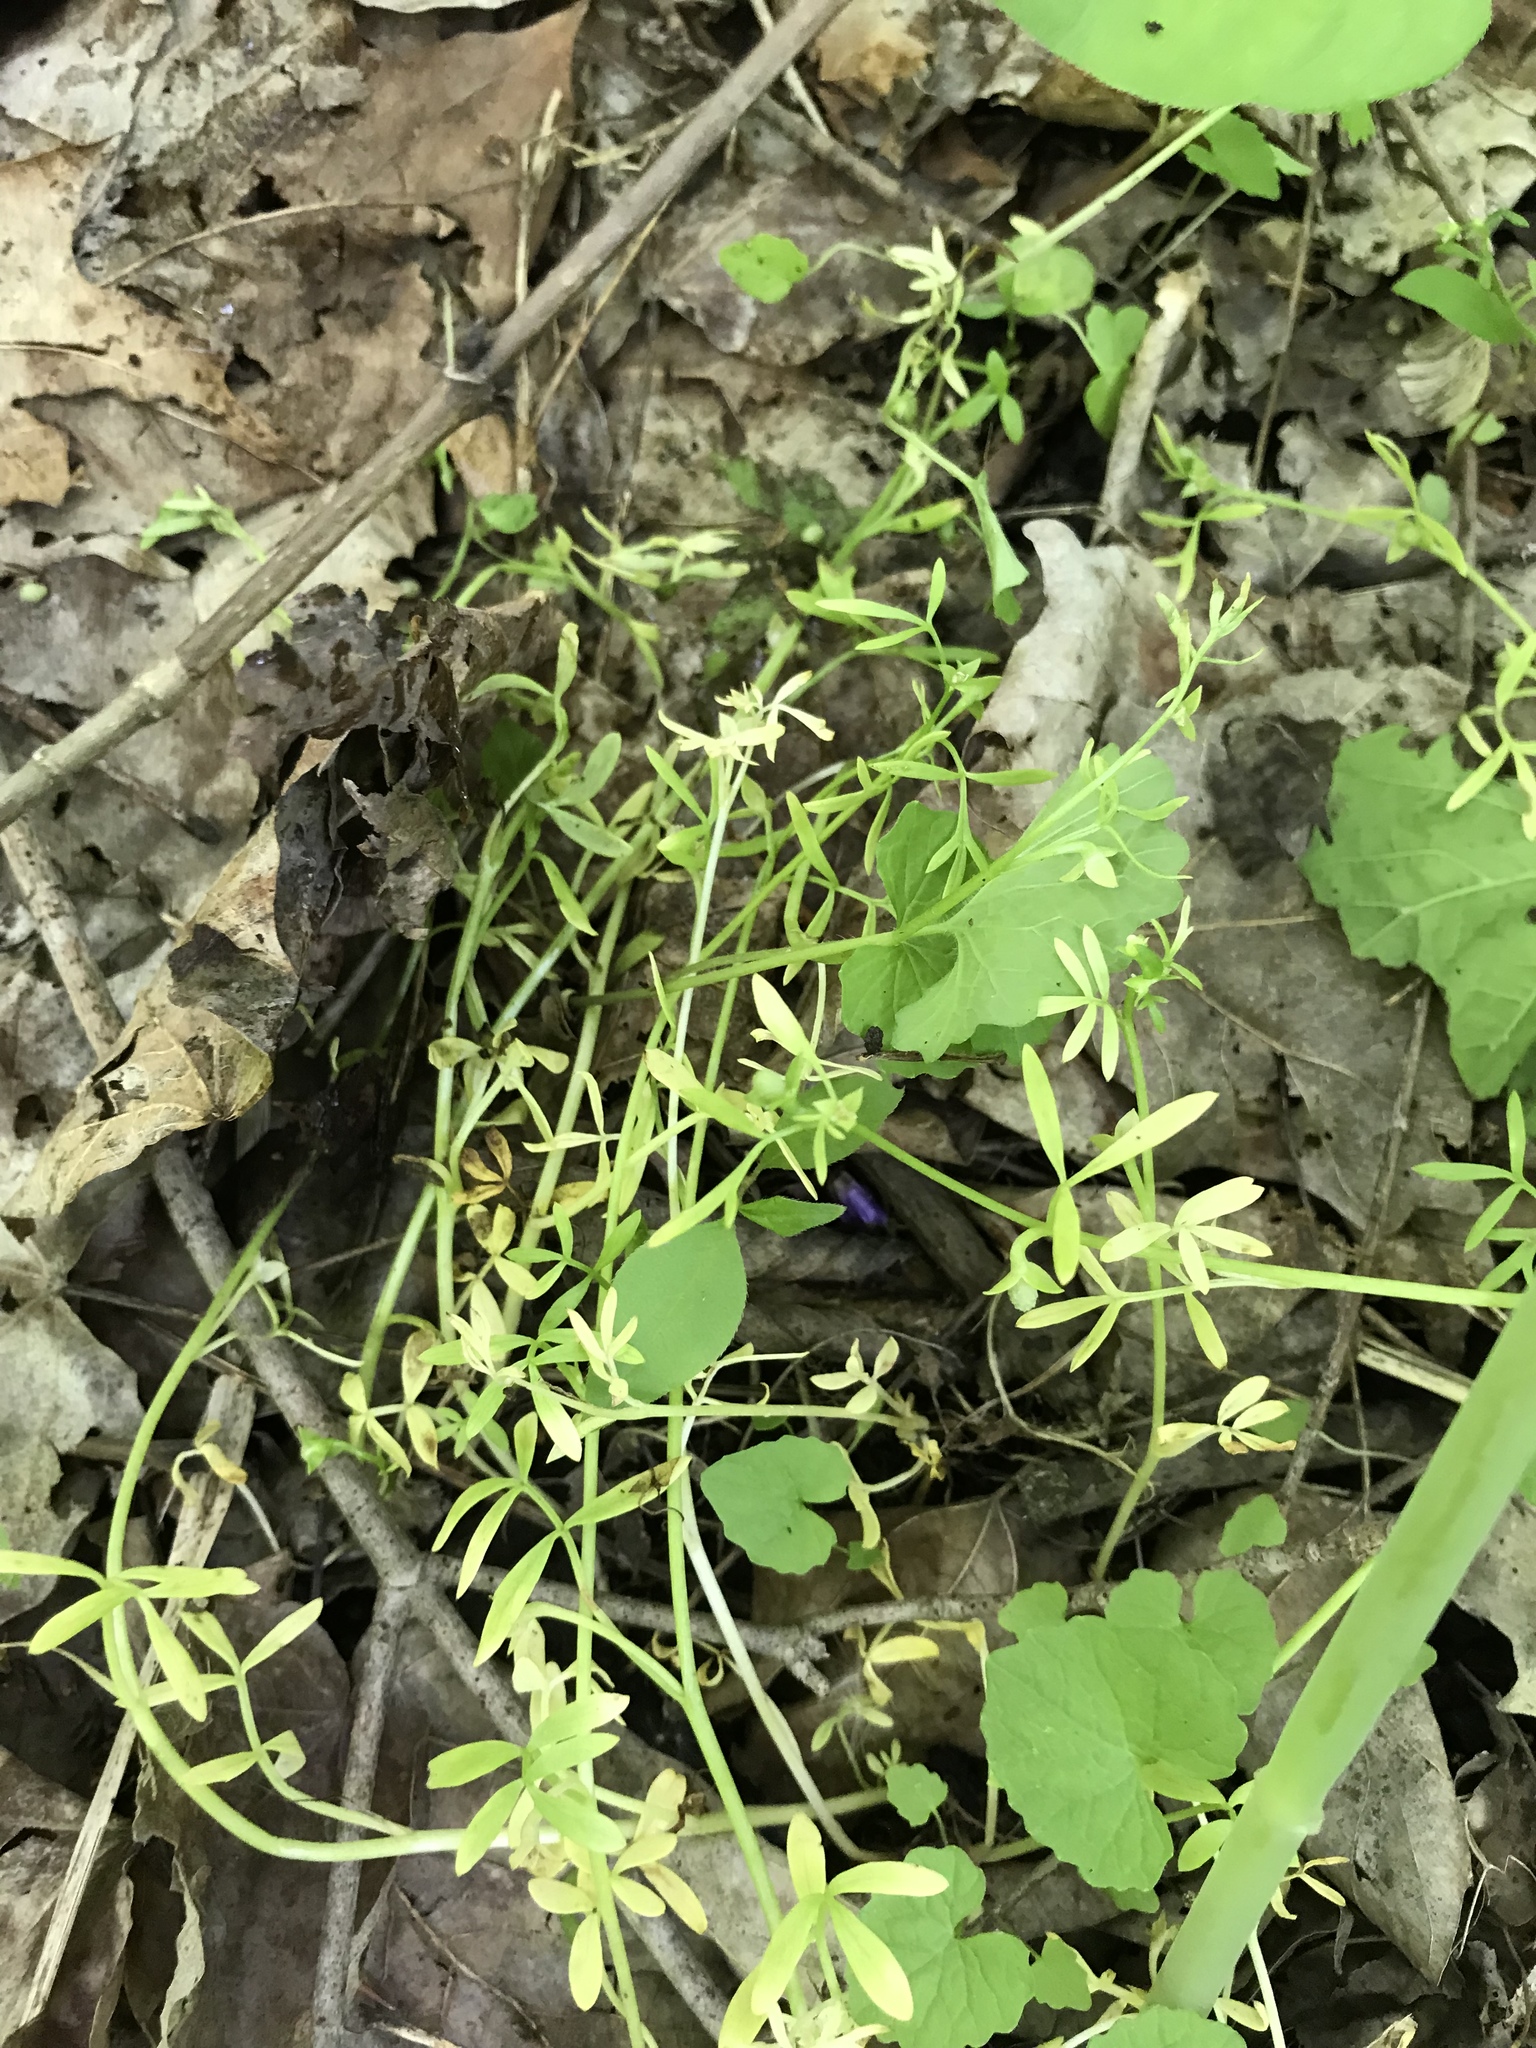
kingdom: Plantae
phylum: Tracheophyta
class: Magnoliopsida
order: Brassicales
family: Limnanthaceae
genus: Floerkea
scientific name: Floerkea proserpinacoides
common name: False mermaid
